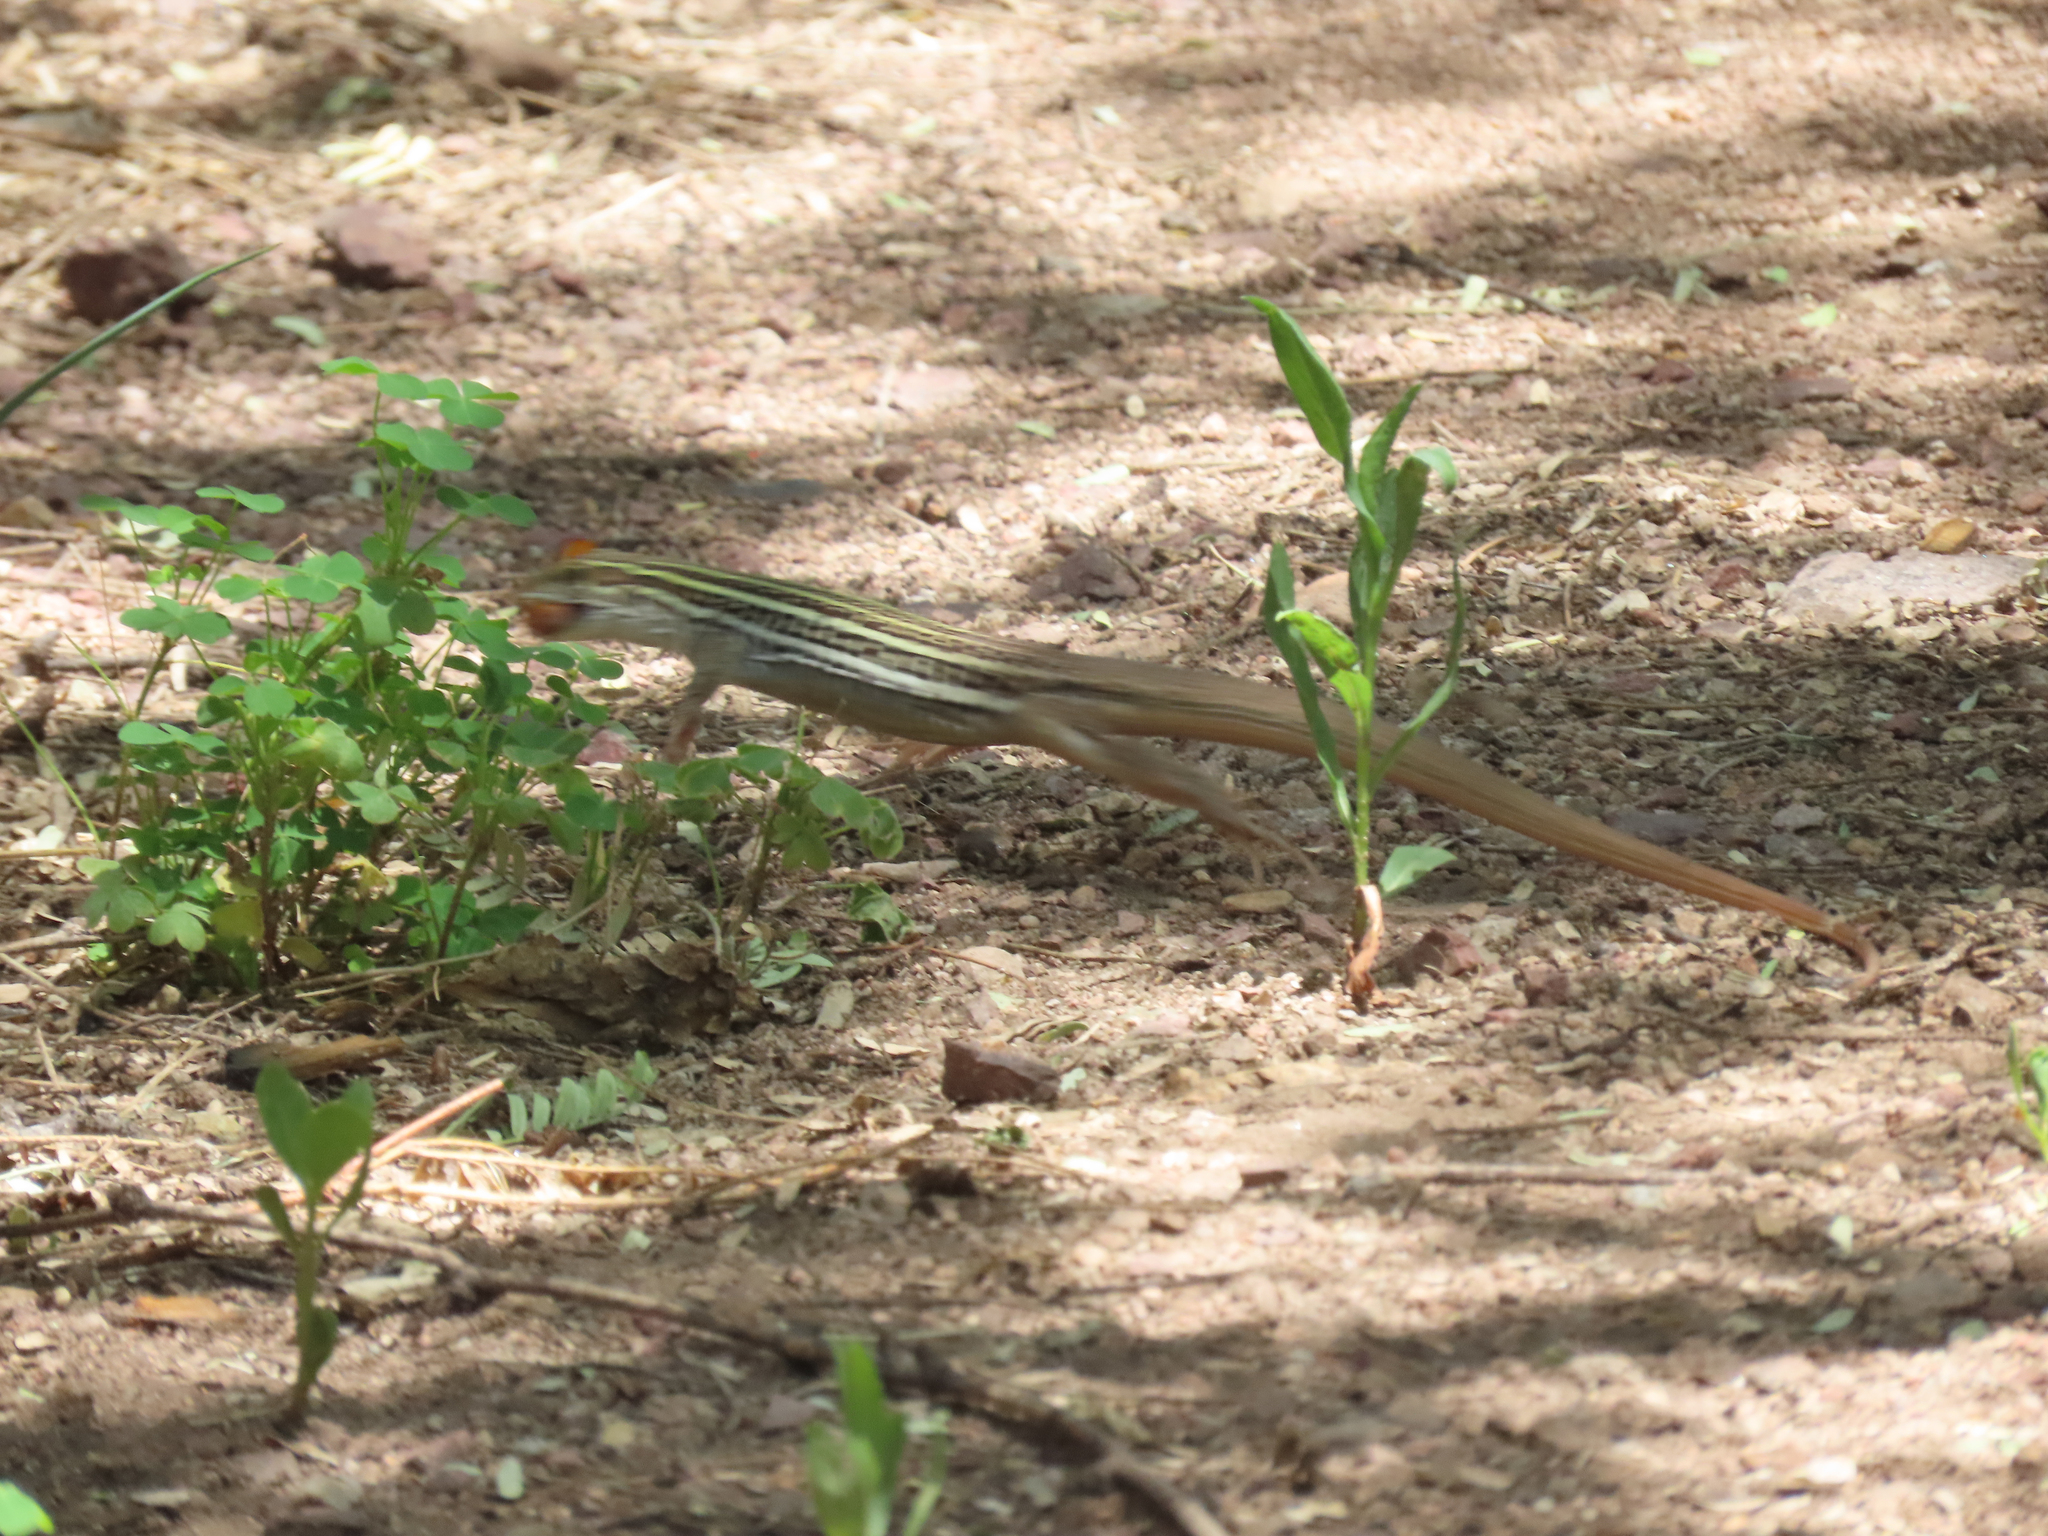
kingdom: Animalia
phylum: Chordata
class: Squamata
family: Teiidae
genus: Aspidoscelis
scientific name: Aspidoscelis stictogrammus
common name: Giant spotted whiptail
